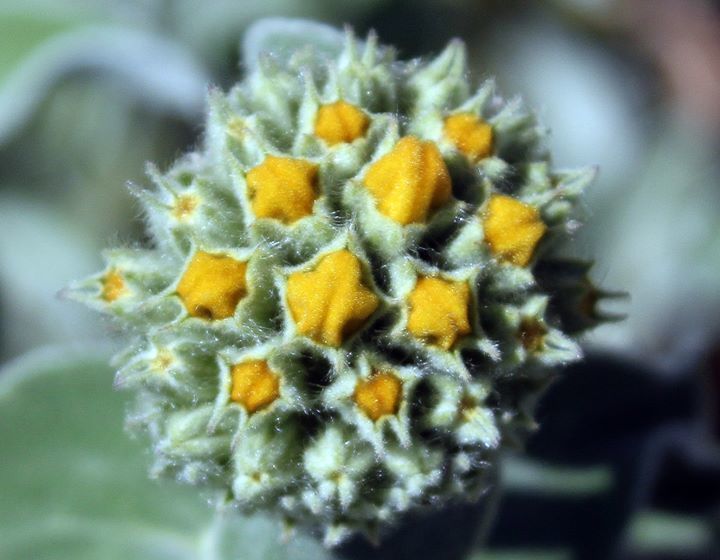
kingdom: Plantae
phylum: Tracheophyta
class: Magnoliopsida
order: Lamiales
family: Lamiaceae
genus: Phlomis
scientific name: Phlomis fruticosa
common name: Jerusalem sage
